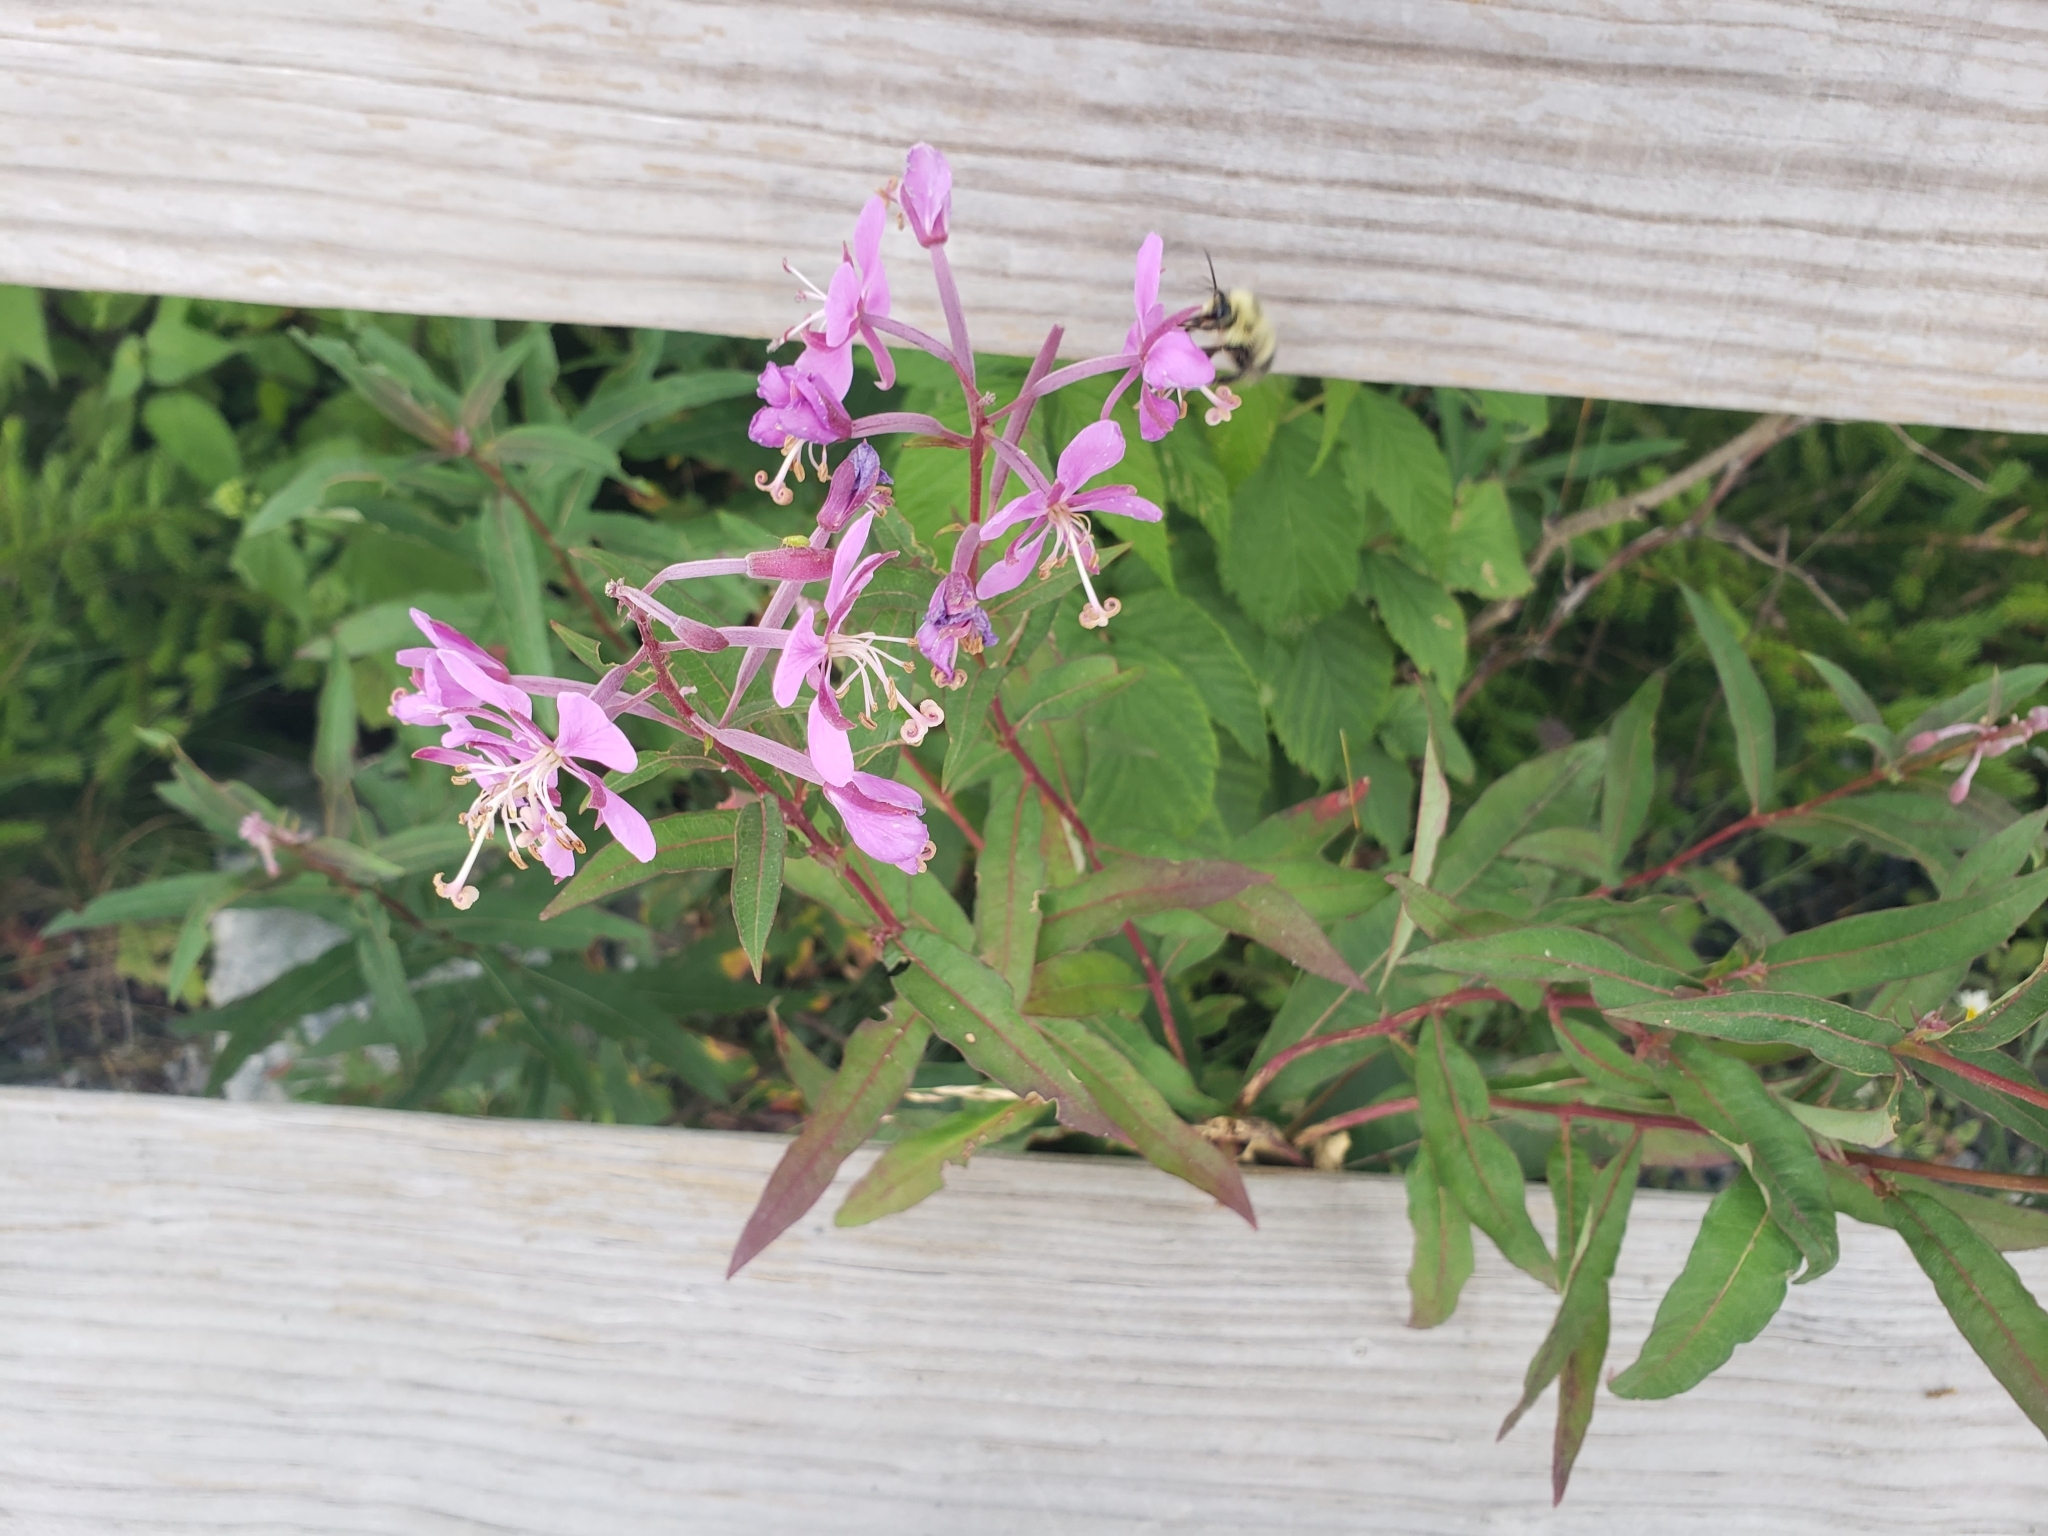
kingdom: Plantae
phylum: Tracheophyta
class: Magnoliopsida
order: Myrtales
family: Onagraceae
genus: Chamaenerion
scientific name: Chamaenerion angustifolium
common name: Fireweed
